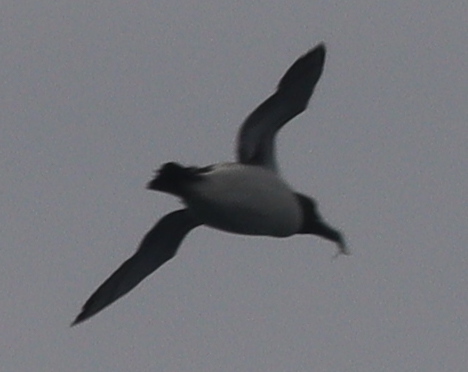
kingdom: Animalia
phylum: Chordata
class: Aves
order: Charadriiformes
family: Alcidae
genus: Uria
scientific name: Uria aalge
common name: Common murre
